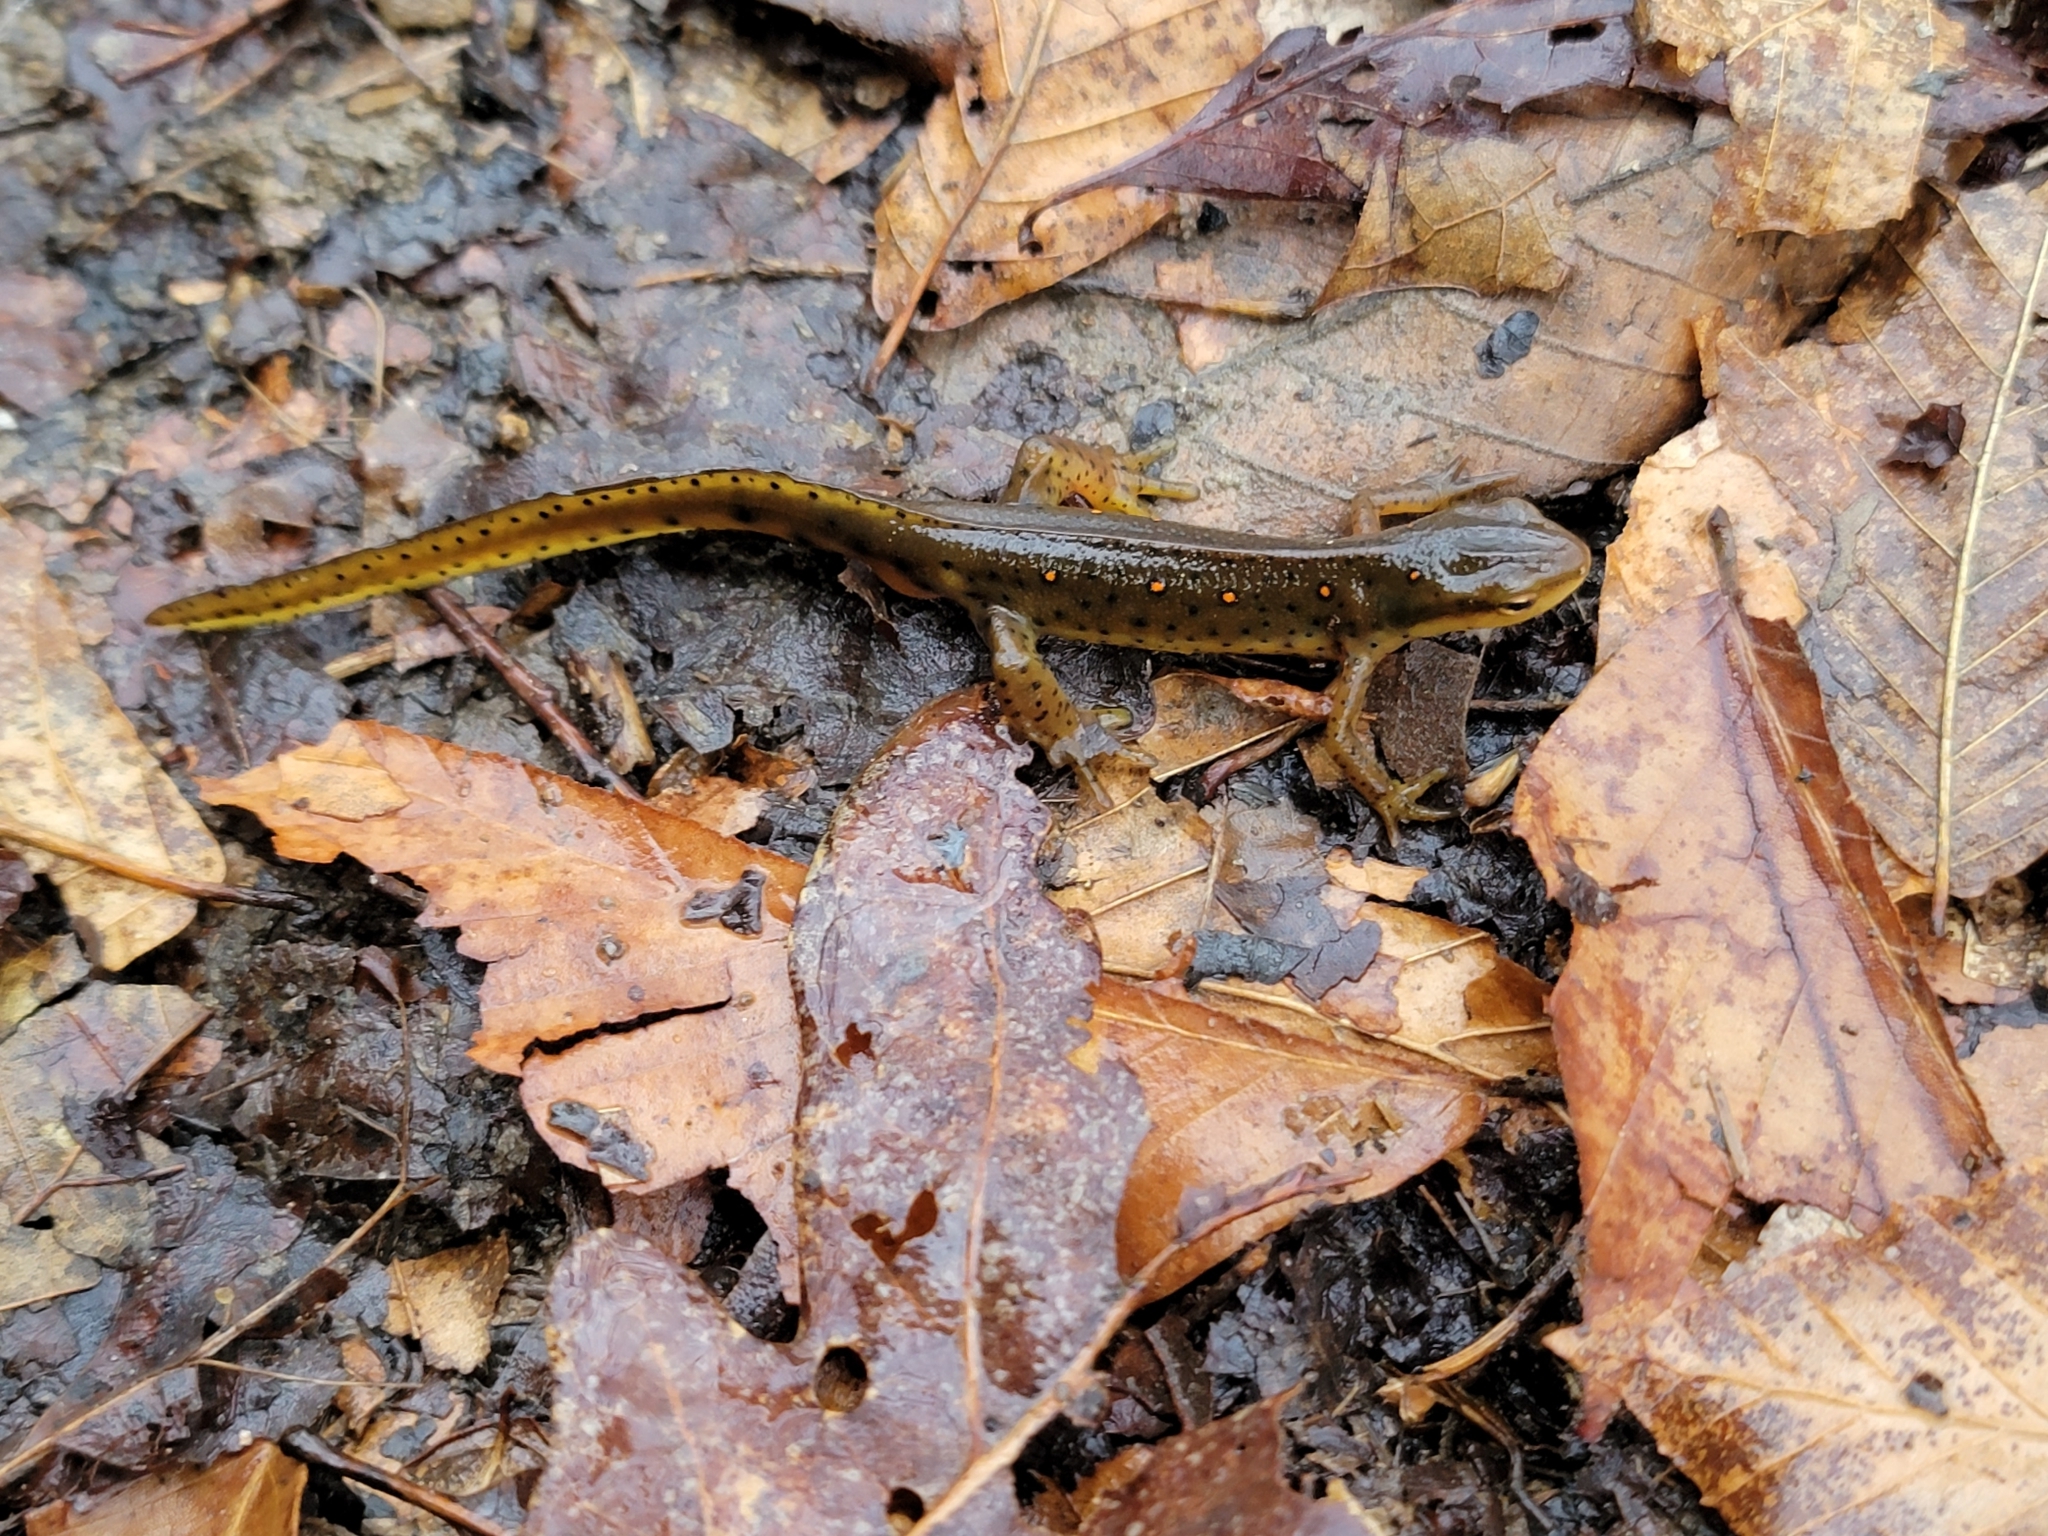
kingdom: Animalia
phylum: Chordata
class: Amphibia
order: Caudata
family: Salamandridae
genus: Notophthalmus
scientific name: Notophthalmus viridescens
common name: Eastern newt
